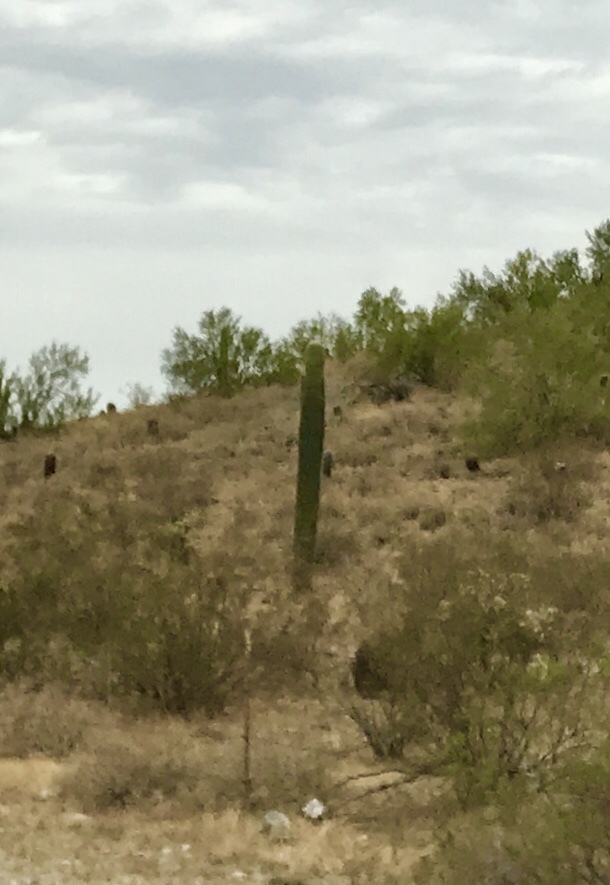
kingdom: Plantae
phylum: Tracheophyta
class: Magnoliopsida
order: Caryophyllales
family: Cactaceae
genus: Carnegiea
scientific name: Carnegiea gigantea
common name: Saguaro
